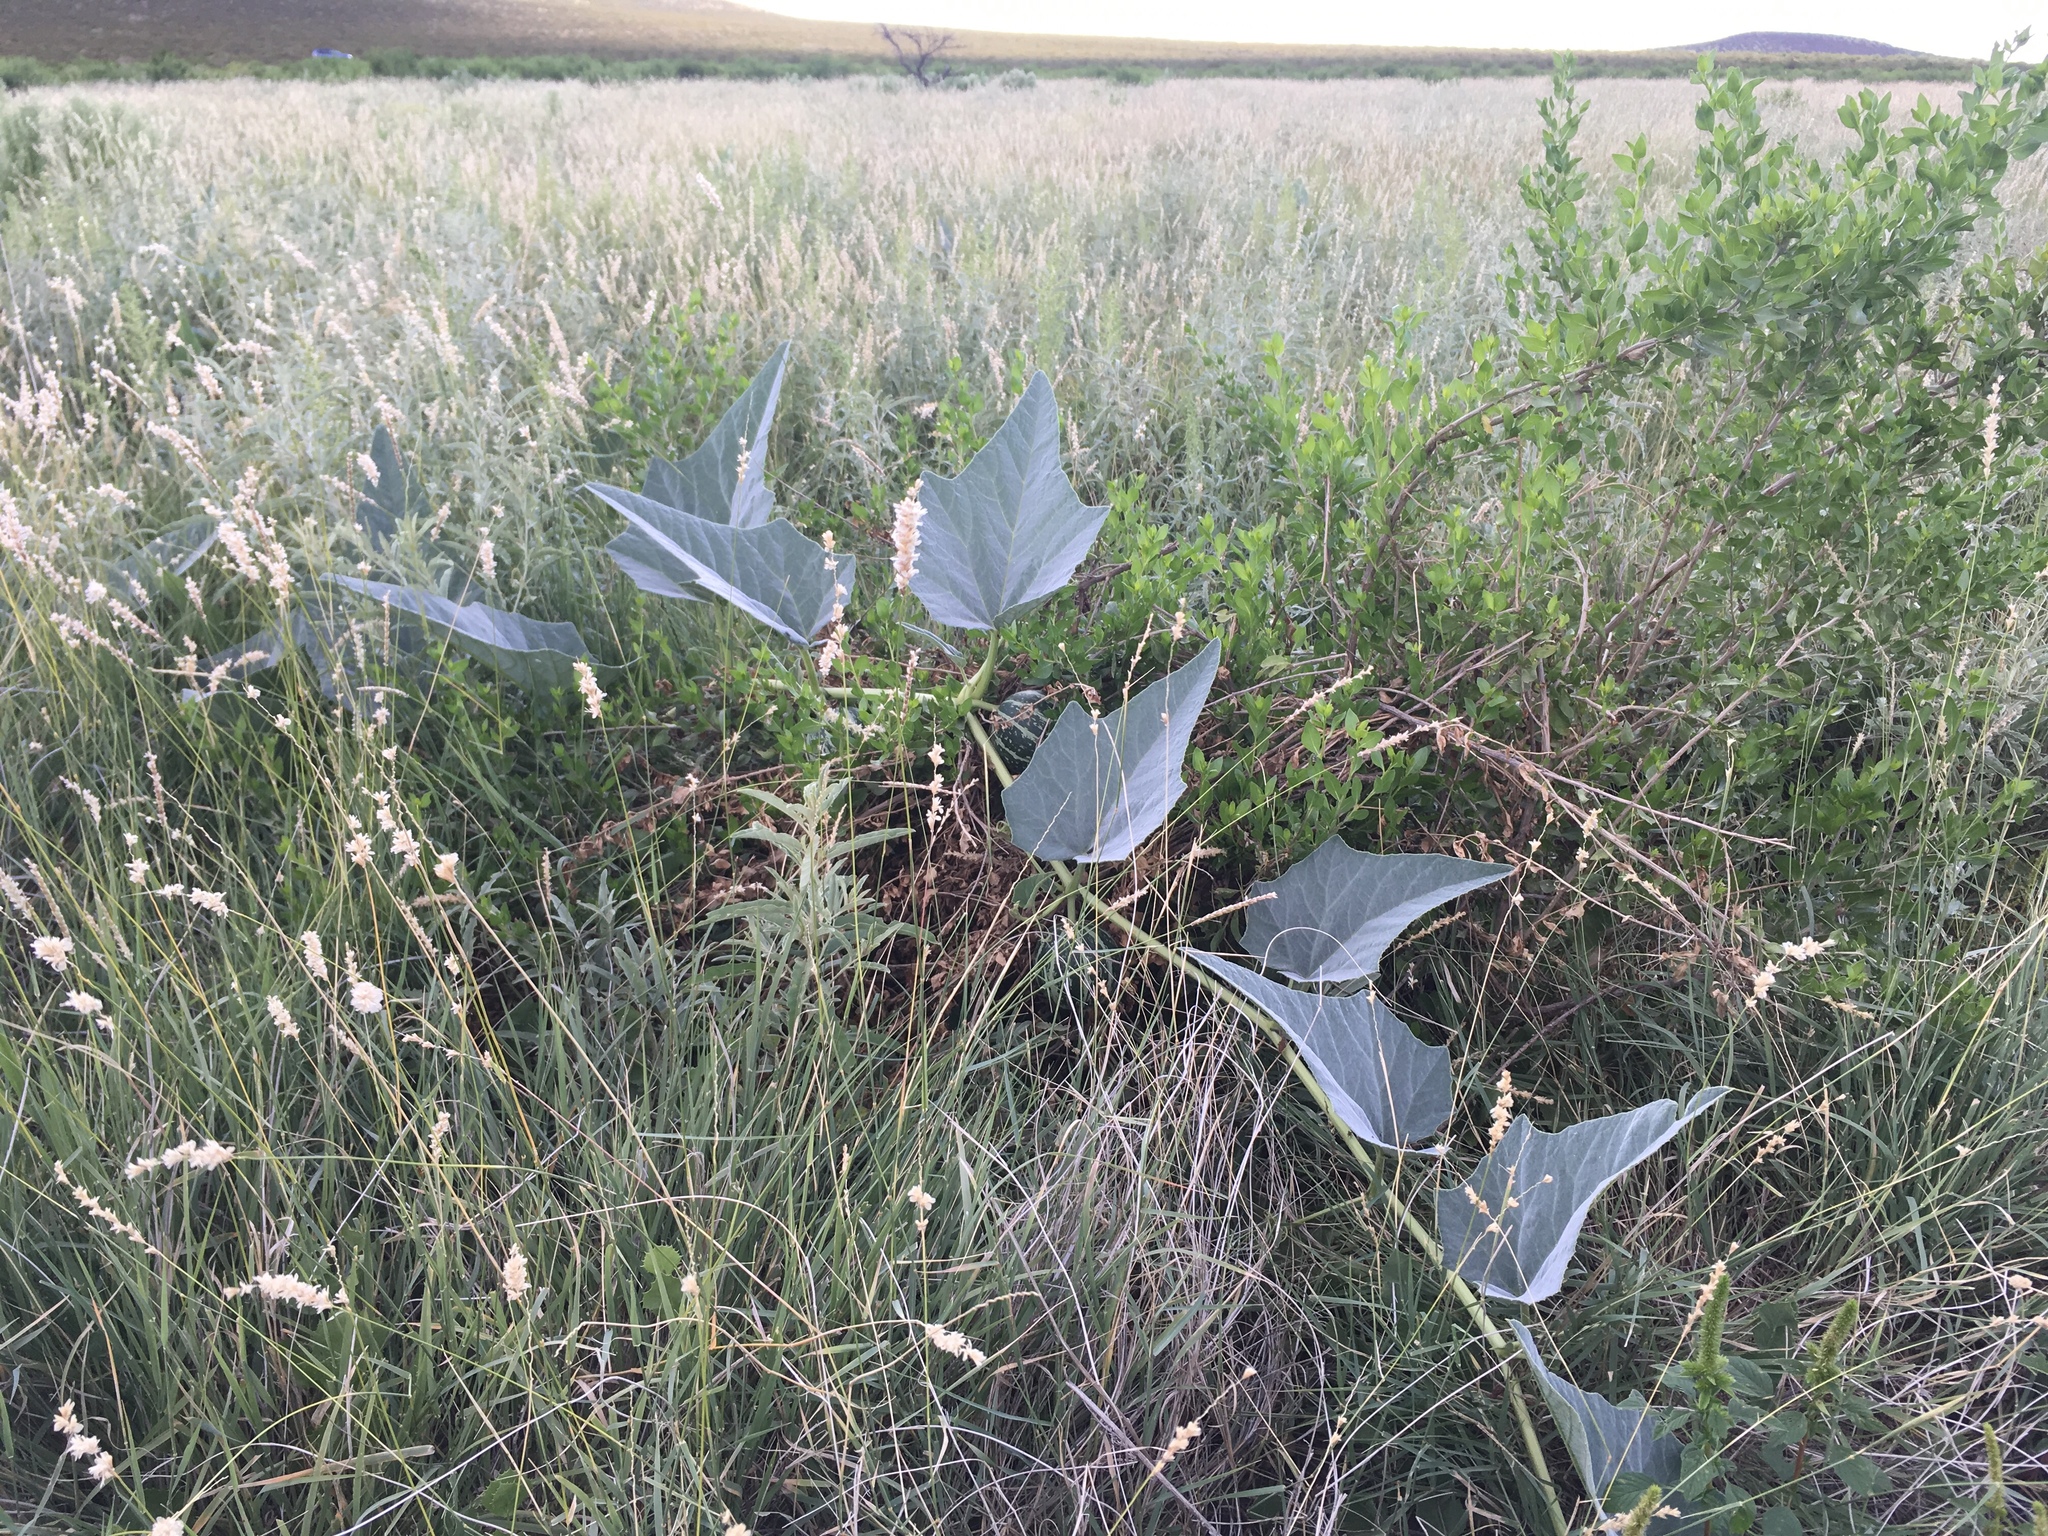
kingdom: Plantae
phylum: Tracheophyta
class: Magnoliopsida
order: Cucurbitales
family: Cucurbitaceae
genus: Cucurbita
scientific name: Cucurbita foetidissima
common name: Buffalo gourd
